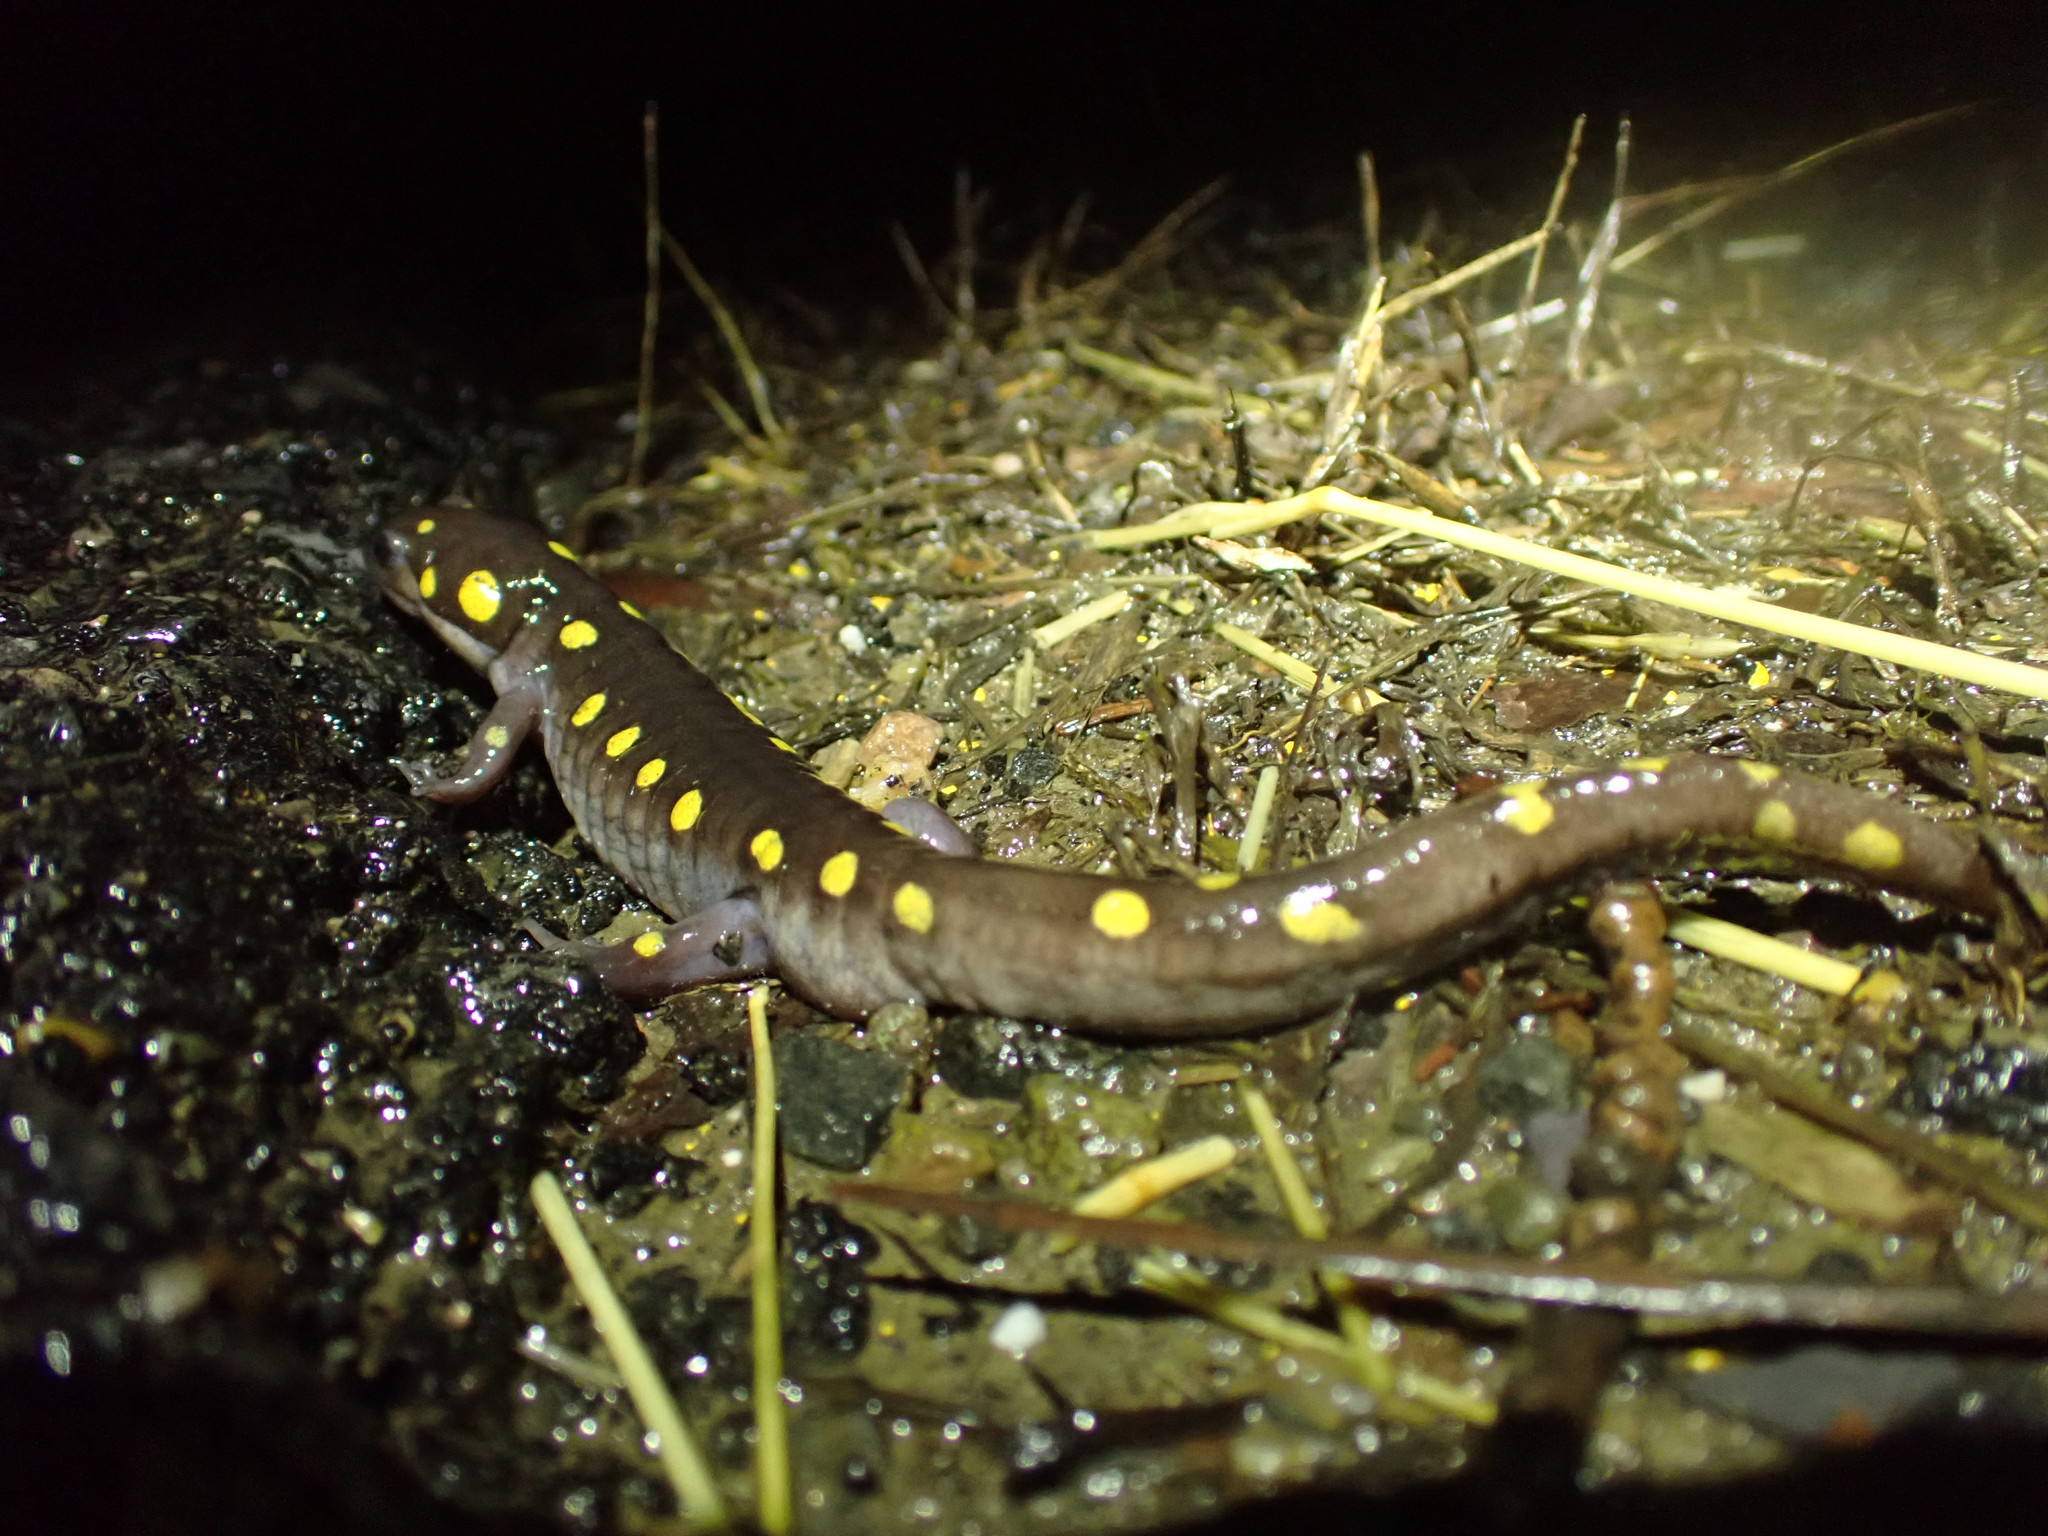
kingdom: Animalia
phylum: Chordata
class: Amphibia
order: Caudata
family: Ambystomatidae
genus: Ambystoma
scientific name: Ambystoma maculatum
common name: Spotted salamander
